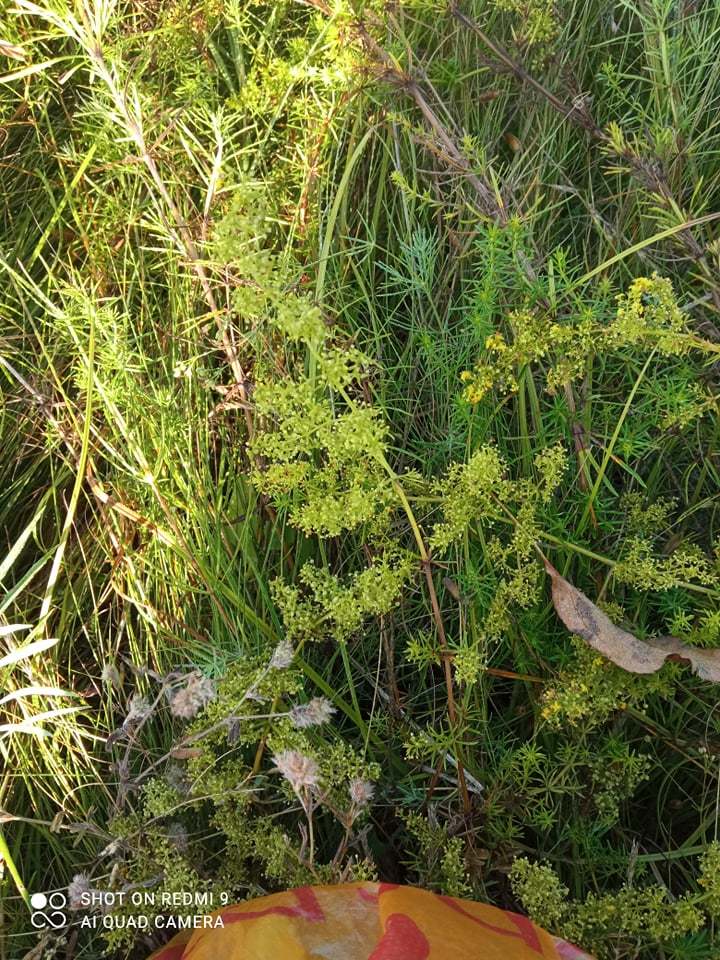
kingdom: Plantae
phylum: Tracheophyta
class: Magnoliopsida
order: Gentianales
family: Rubiaceae
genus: Galium
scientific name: Galium verum
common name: Lady's bedstraw
